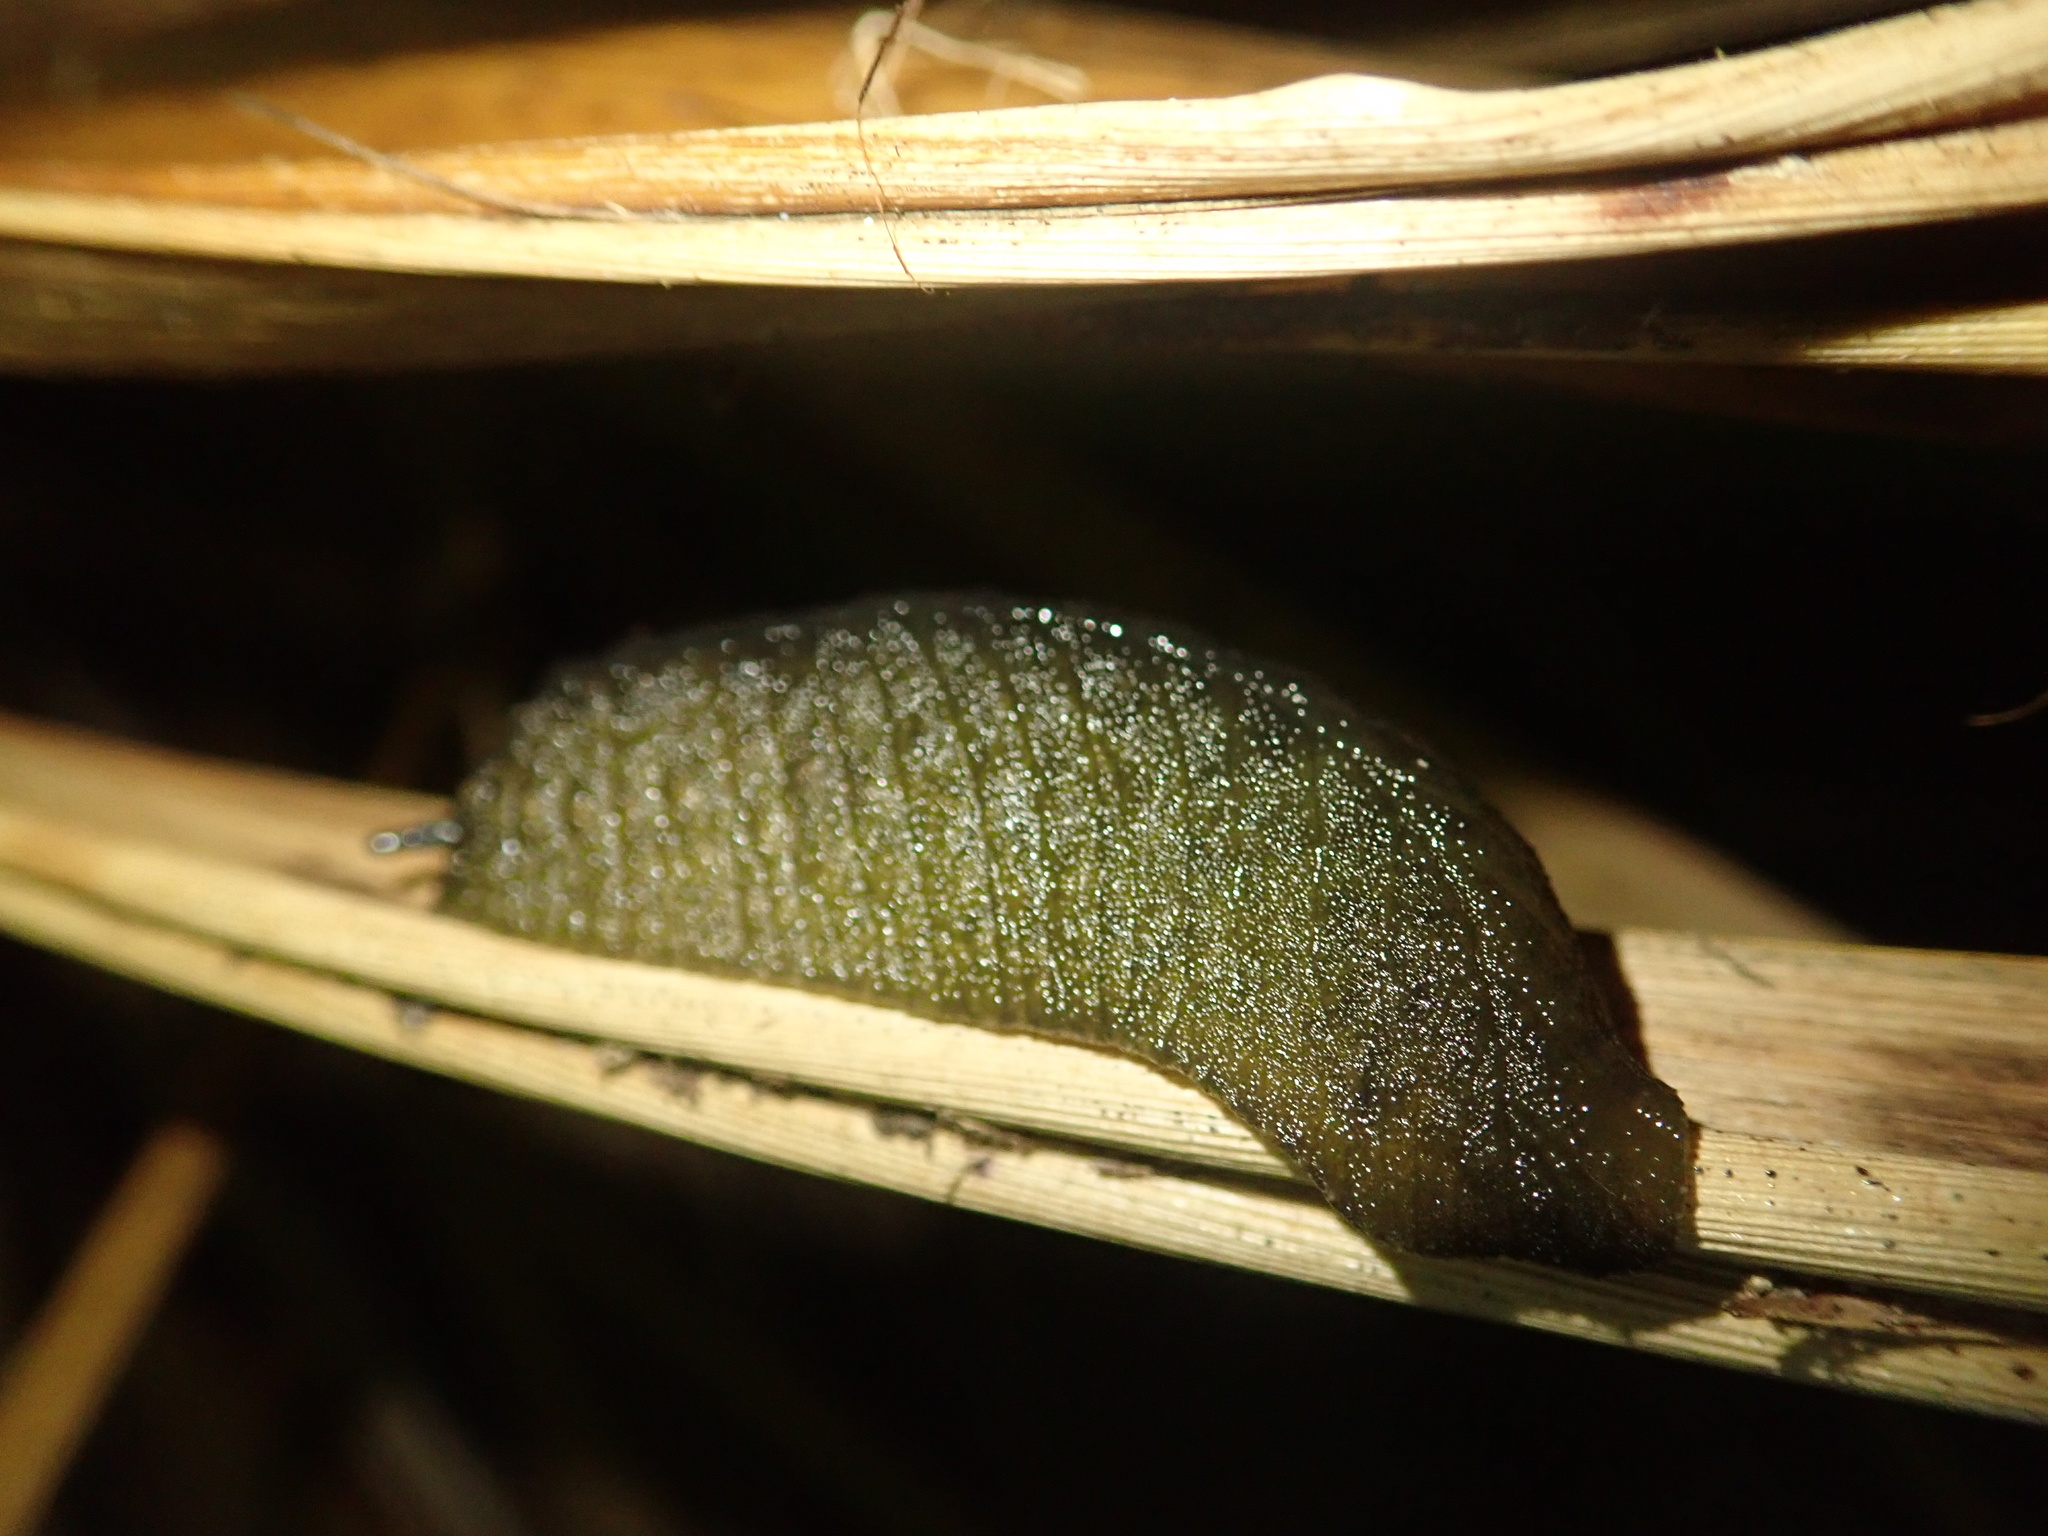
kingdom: Animalia
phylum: Mollusca
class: Gastropoda
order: Stylommatophora
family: Athoracophoridae
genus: Athoracophorus
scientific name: Athoracophorus papillatus
